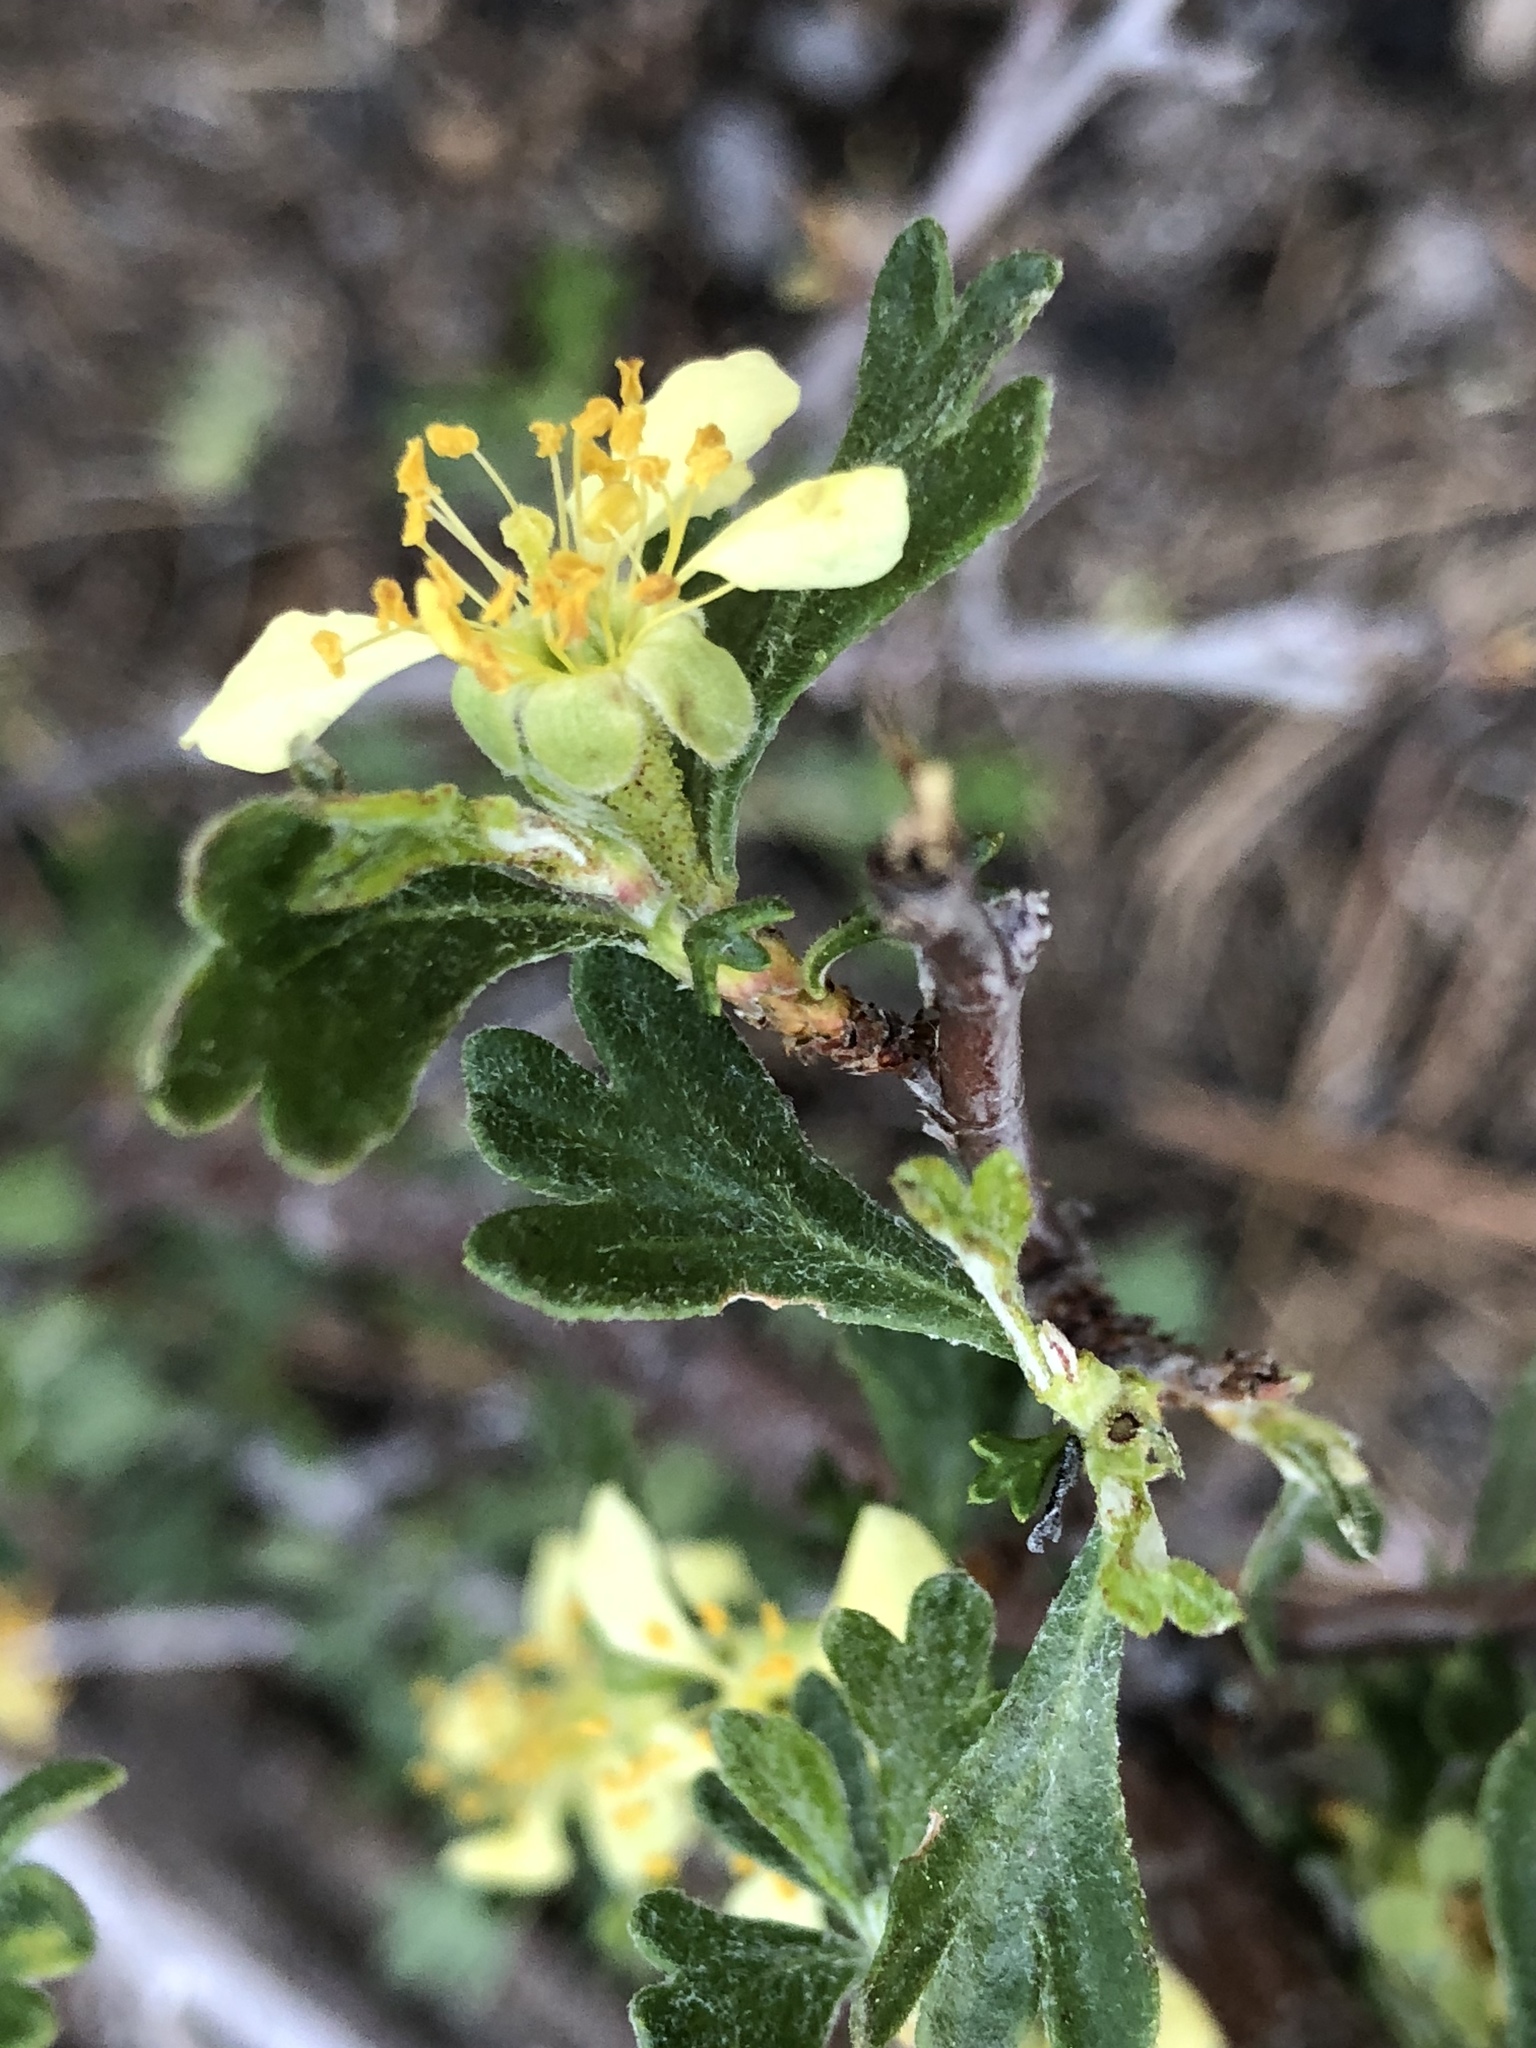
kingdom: Plantae
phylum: Tracheophyta
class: Magnoliopsida
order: Rosales
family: Rosaceae
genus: Purshia
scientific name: Purshia tridentata
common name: Antelope bitterbrush
